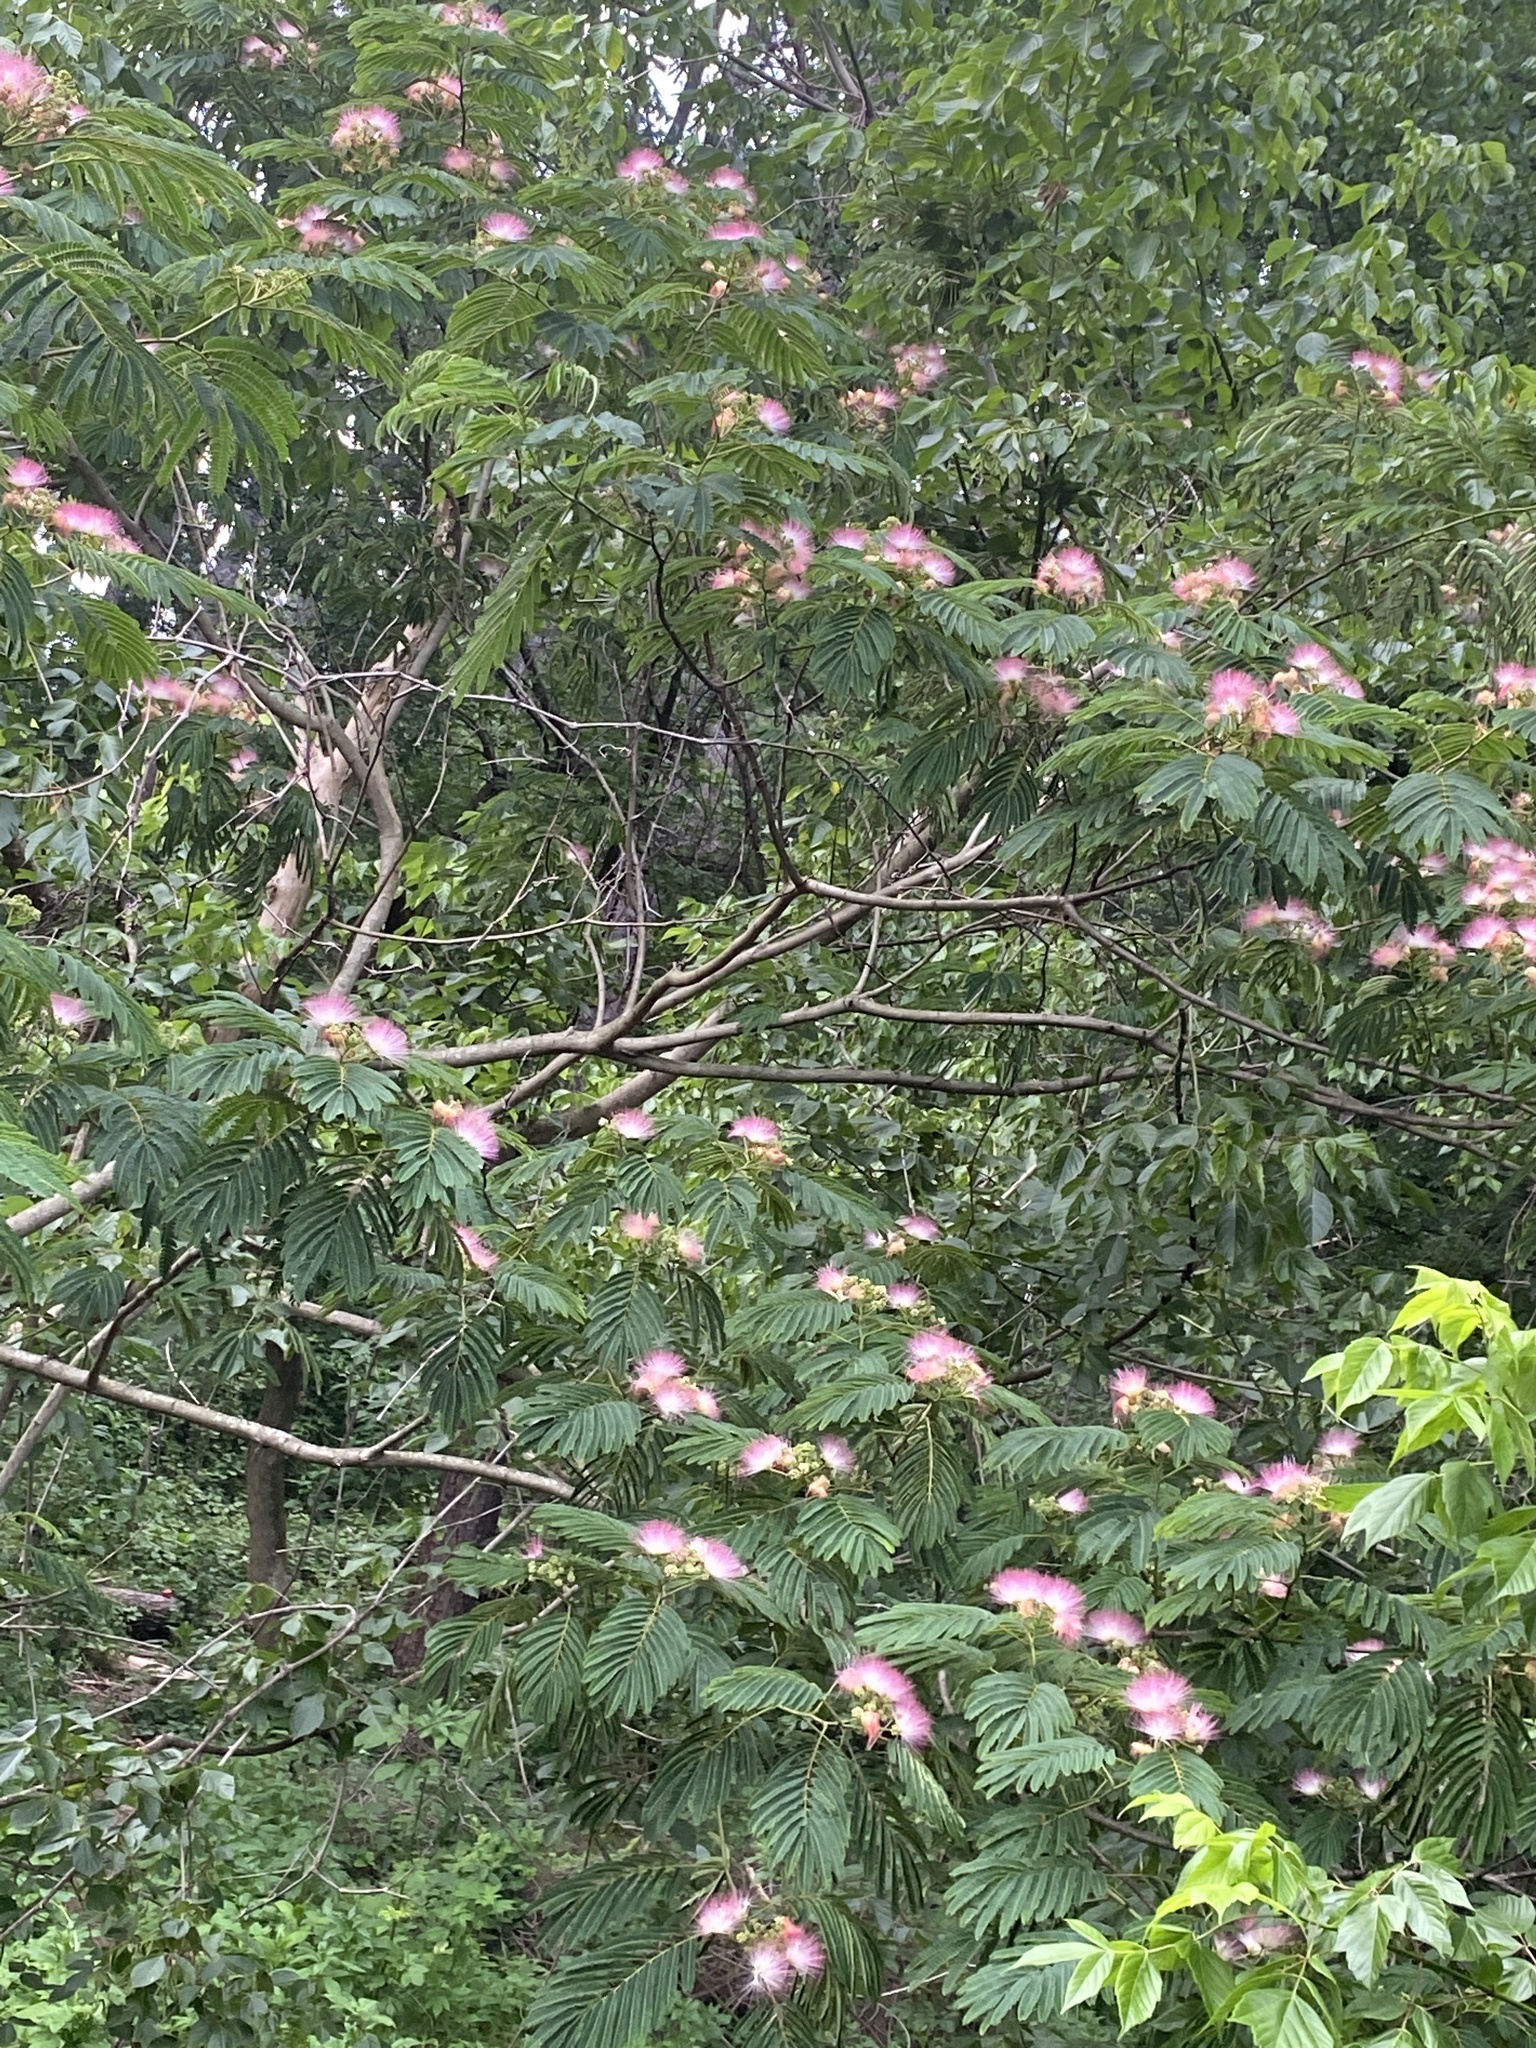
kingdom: Plantae
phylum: Tracheophyta
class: Magnoliopsida
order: Fabales
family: Fabaceae
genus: Albizia
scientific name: Albizia julibrissin
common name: Silktree
